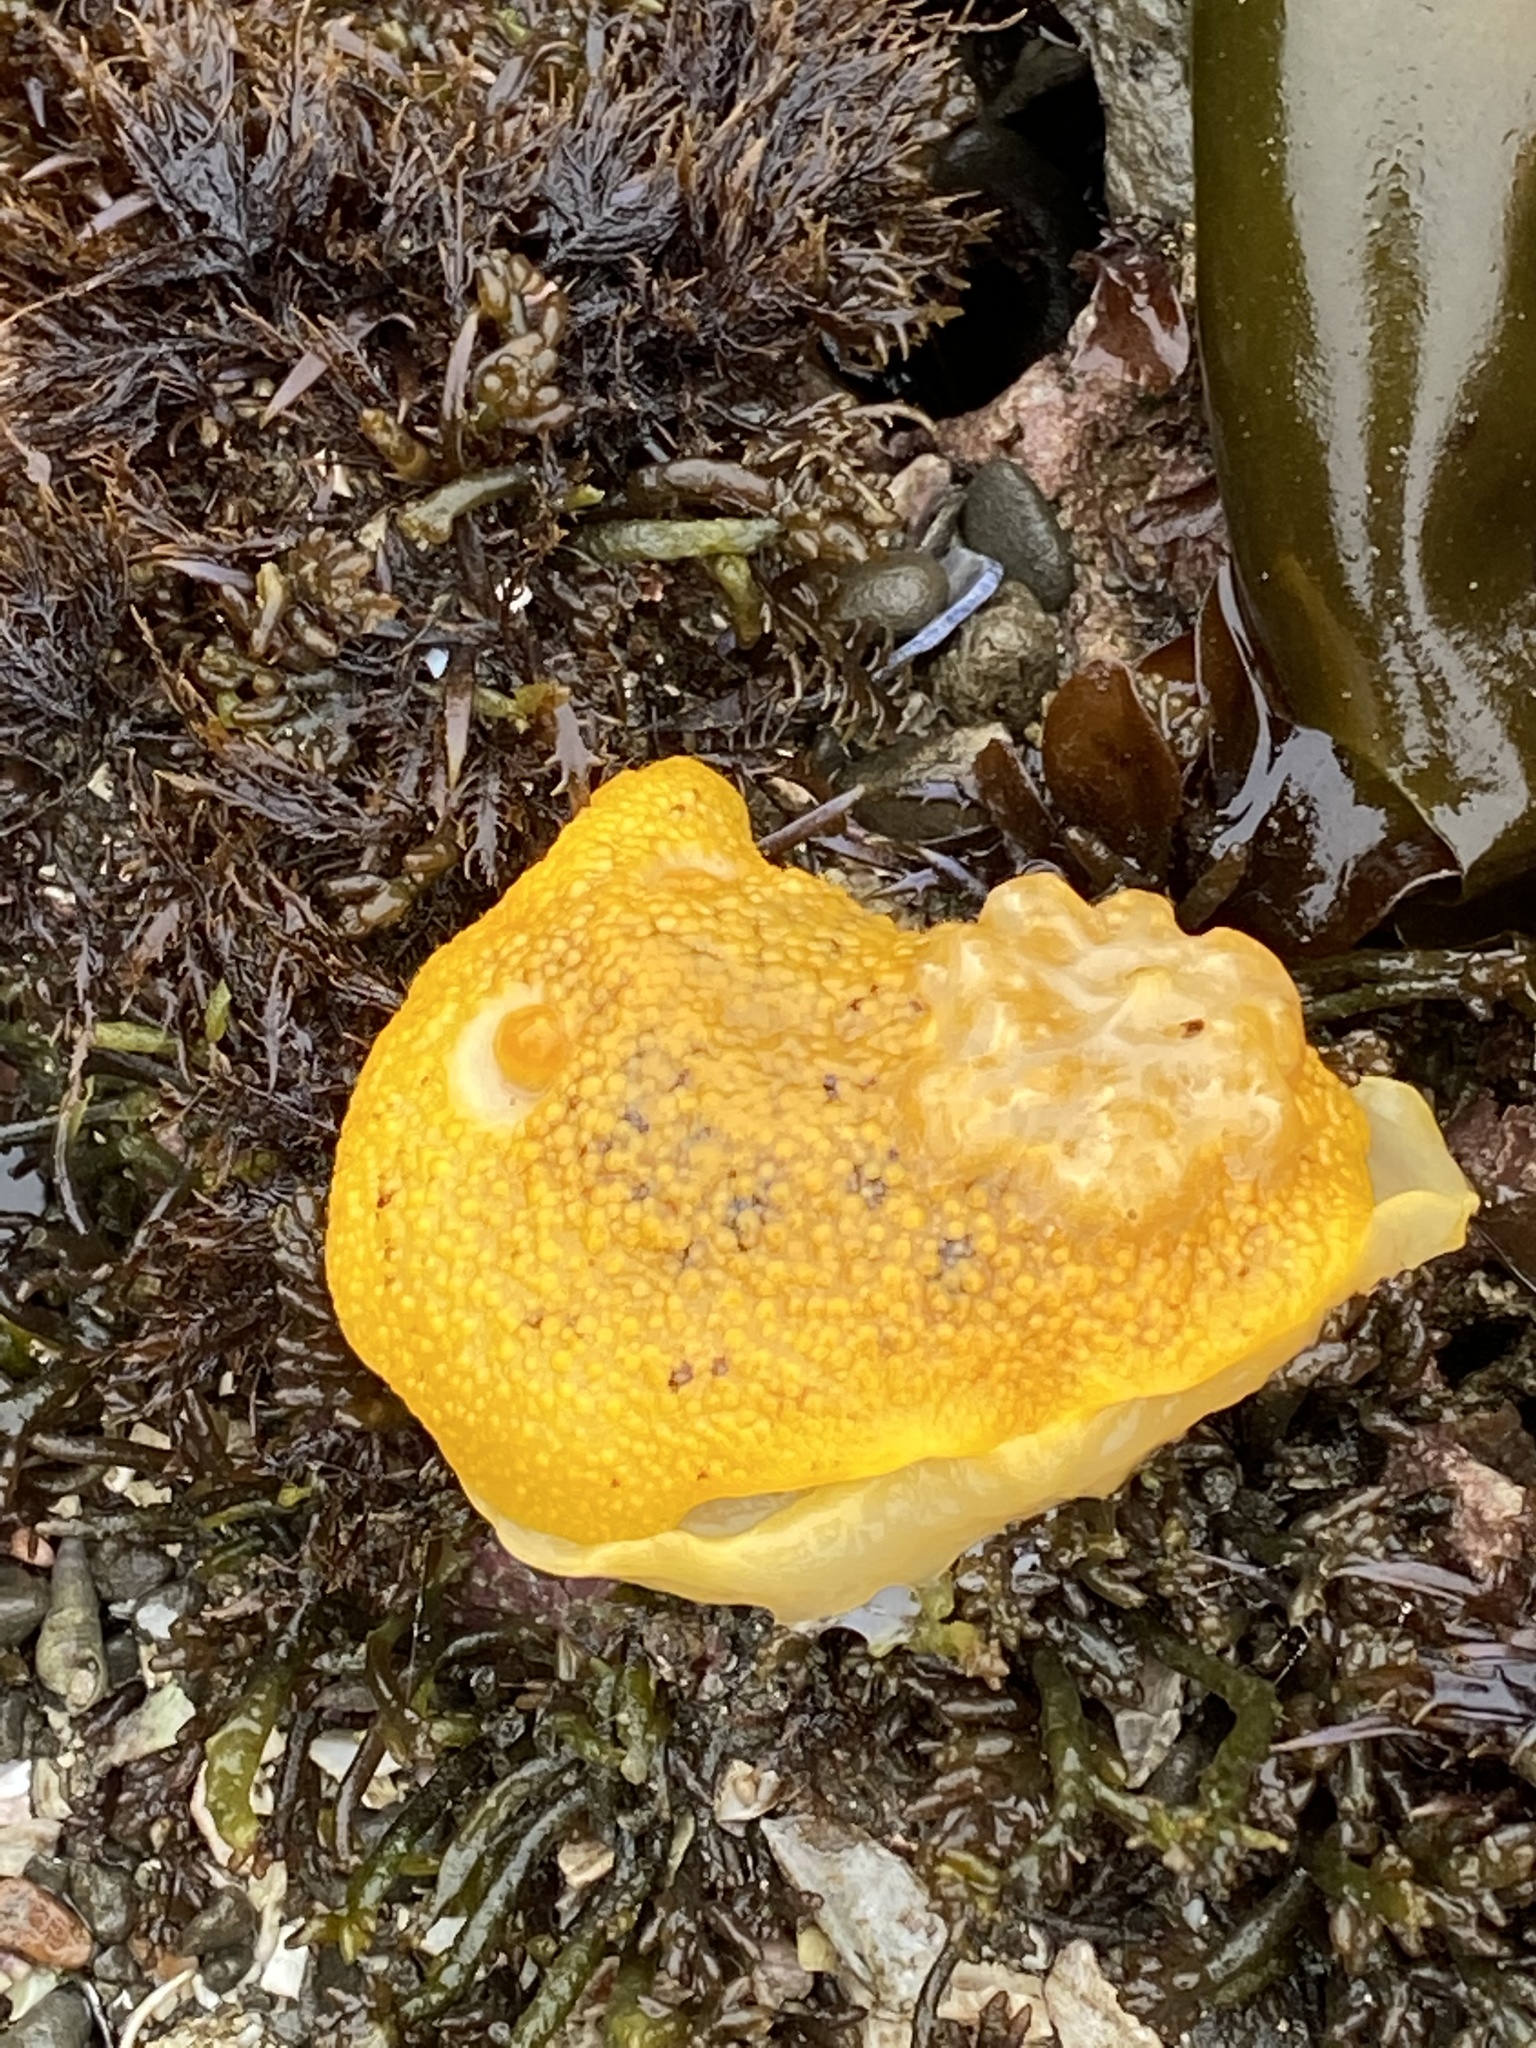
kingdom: Animalia
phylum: Mollusca
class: Gastropoda
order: Nudibranchia
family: Discodorididae
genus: Peltodoris
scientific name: Peltodoris nobilis
